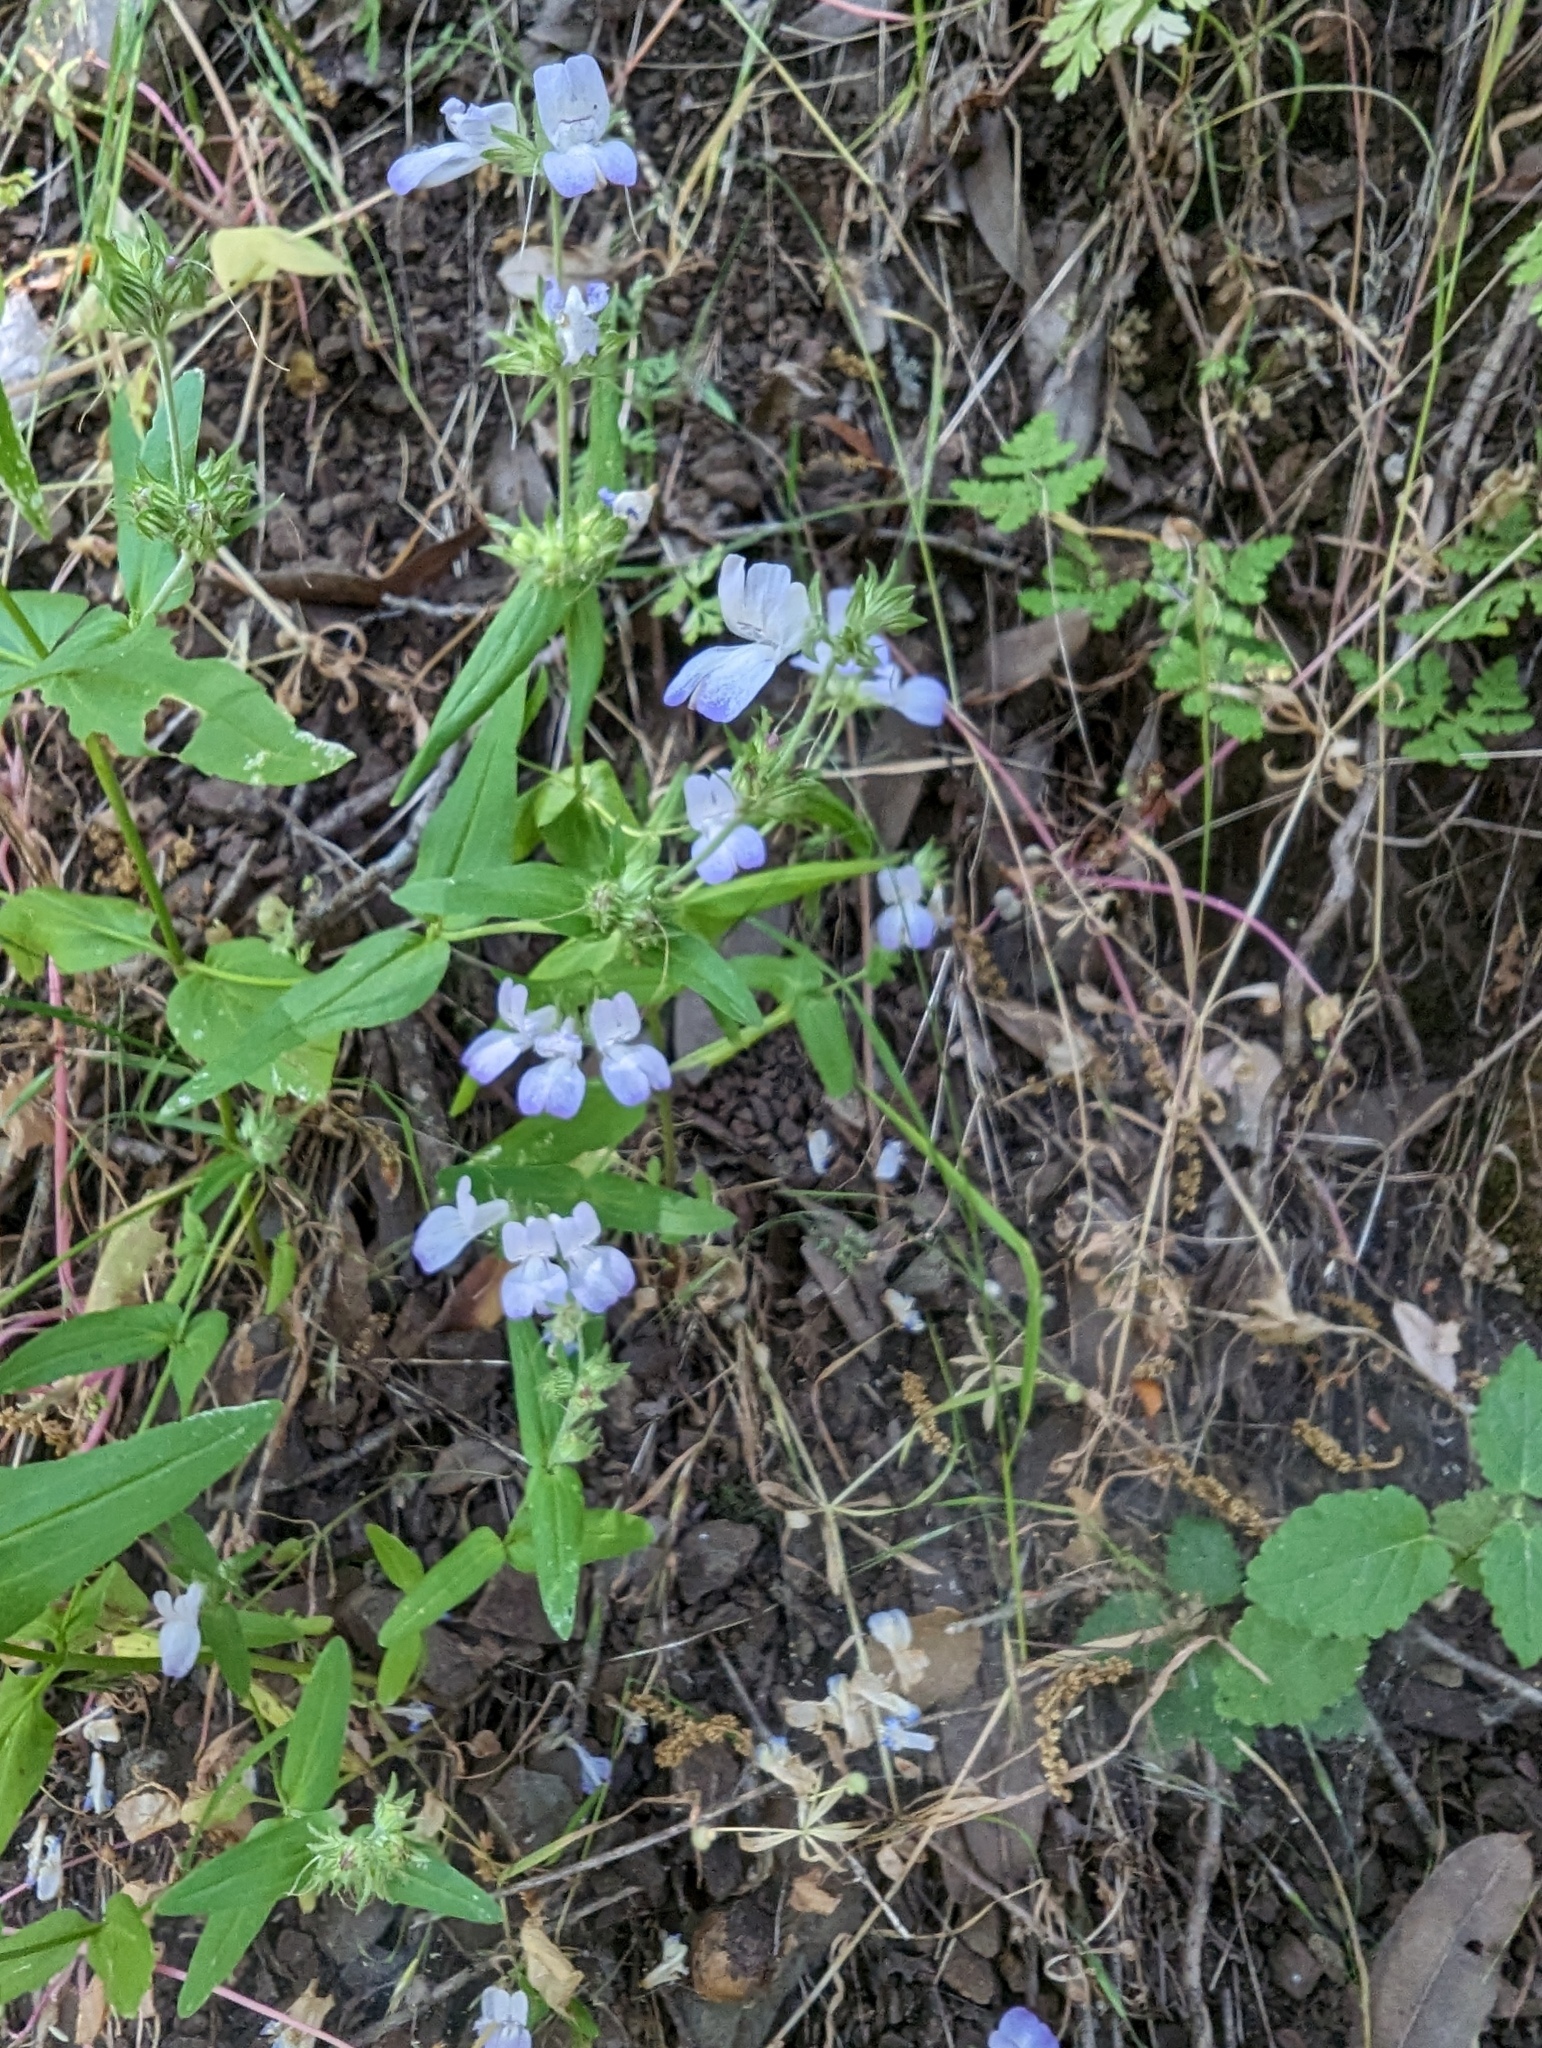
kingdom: Plantae
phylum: Tracheophyta
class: Magnoliopsida
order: Lamiales
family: Plantaginaceae
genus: Collinsia
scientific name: Collinsia heterophylla
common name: Chinese-houses
